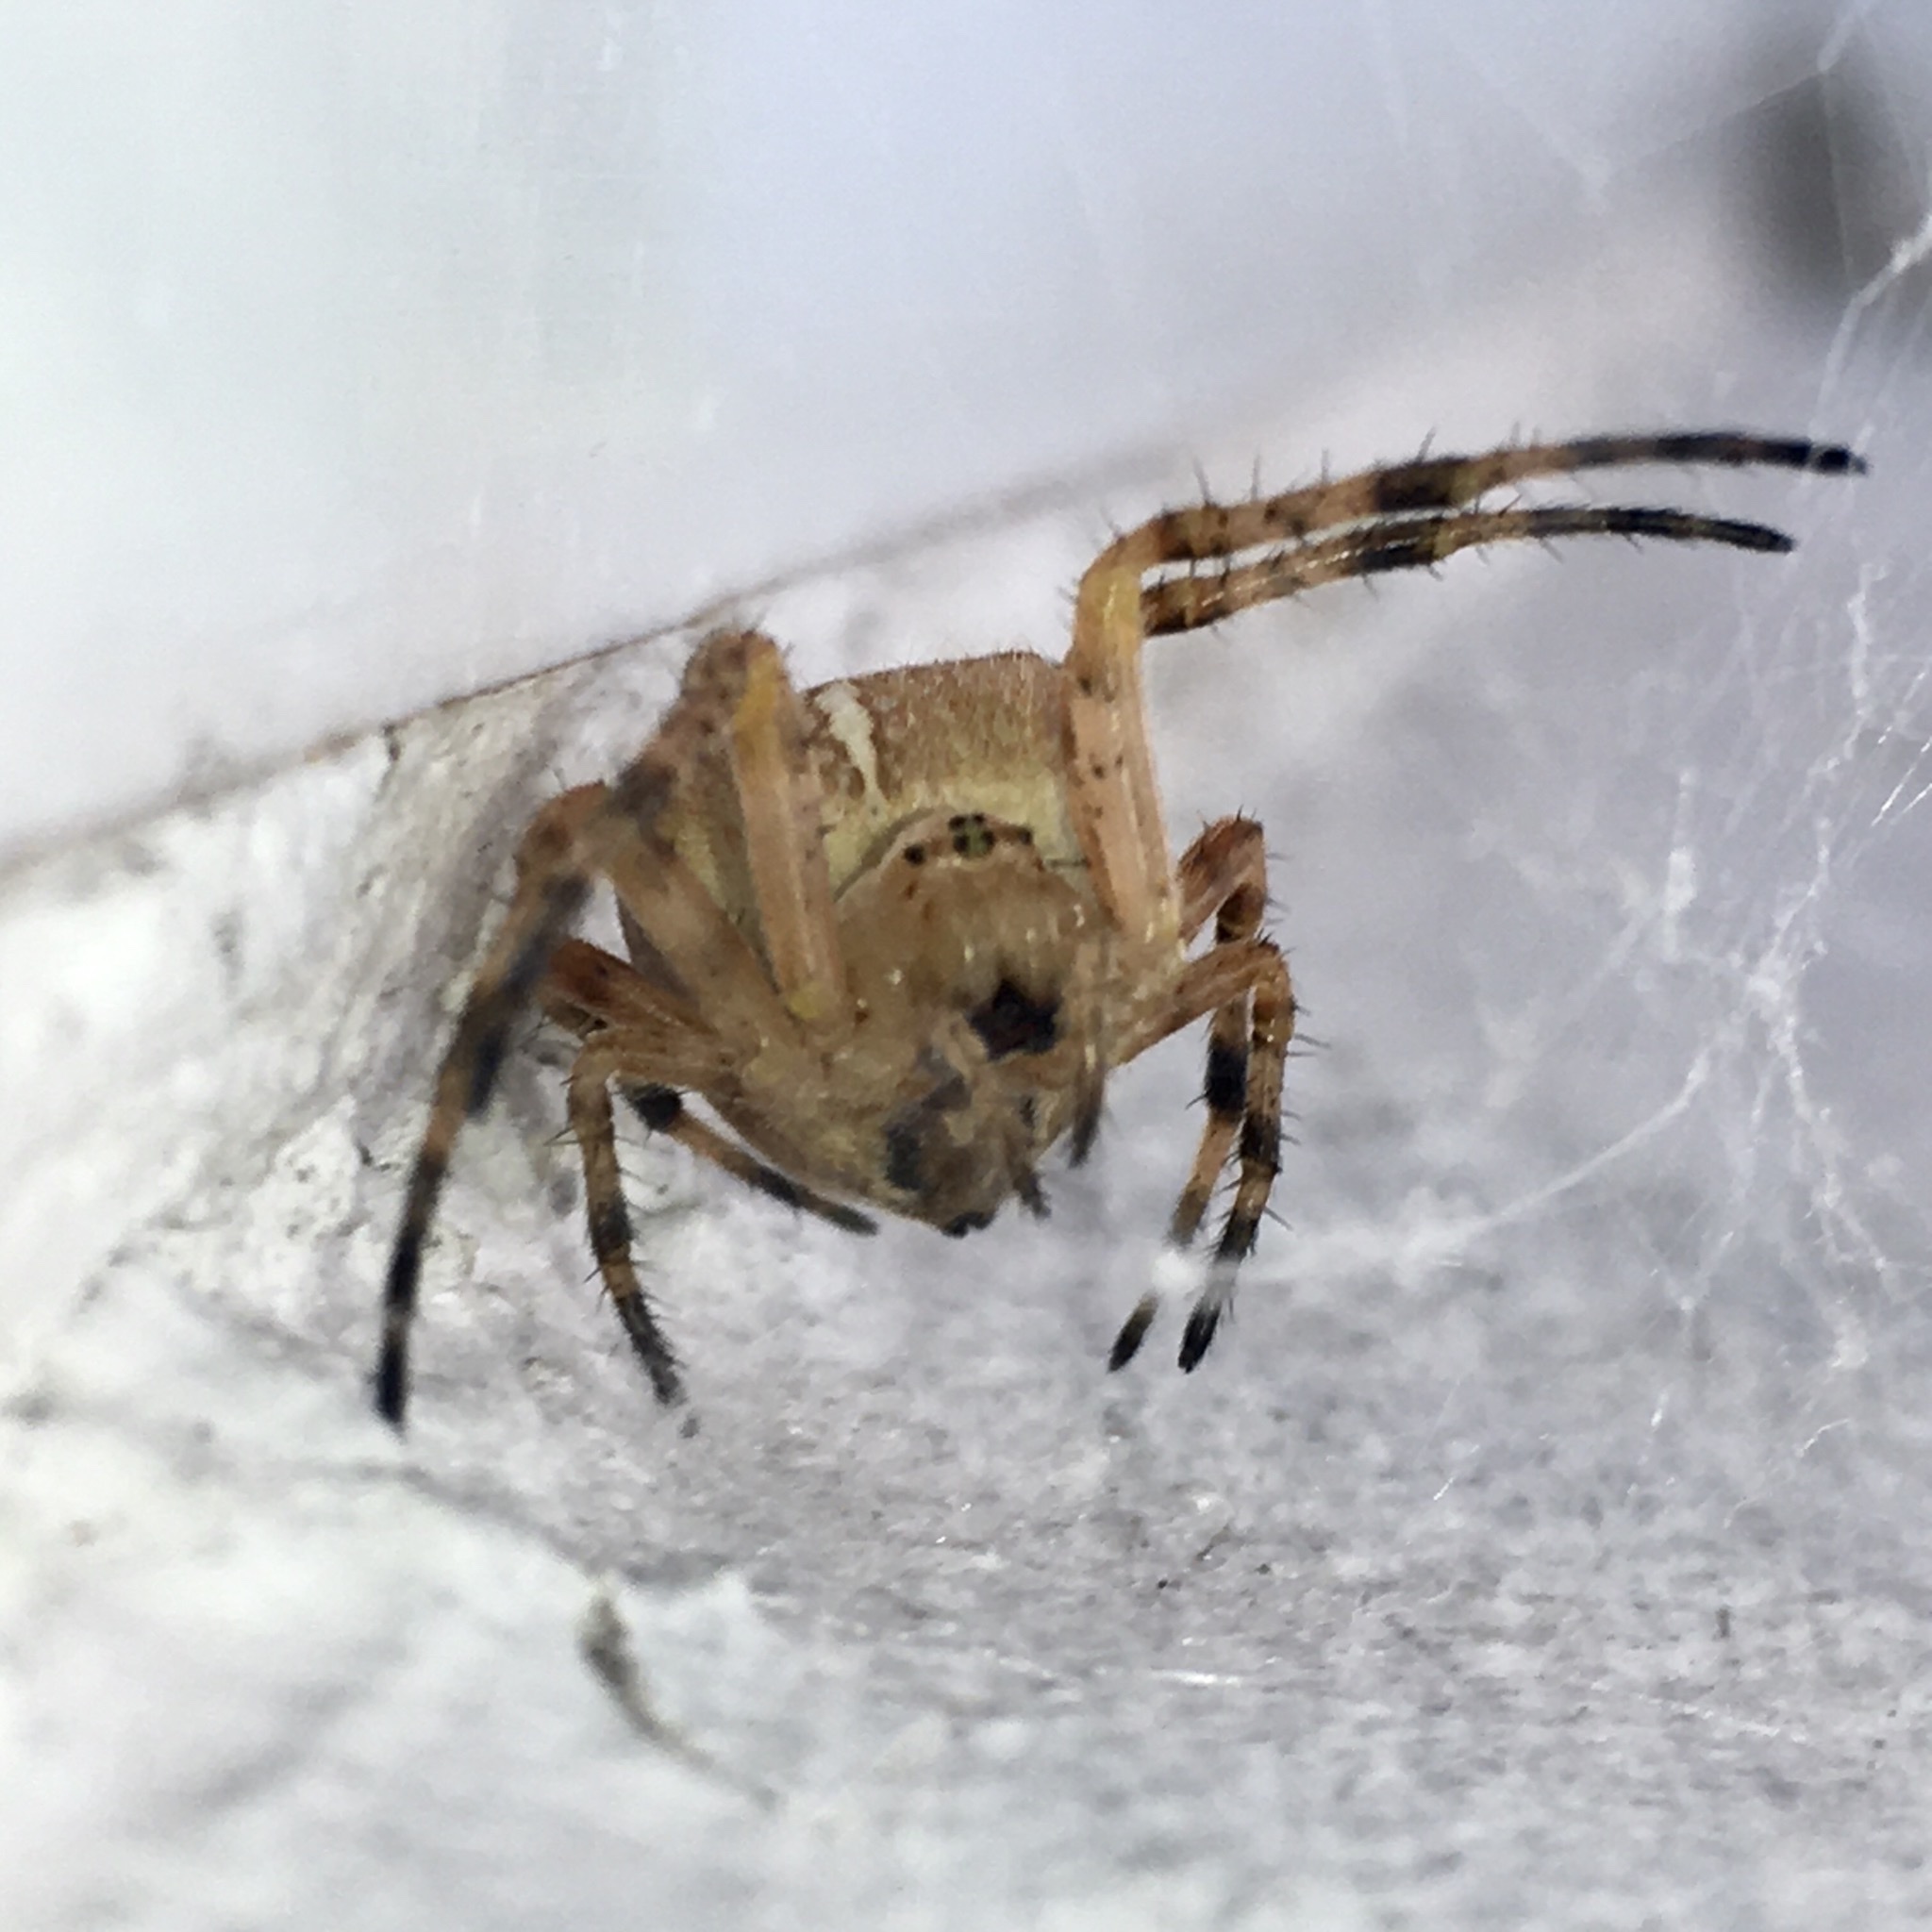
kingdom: Animalia
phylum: Arthropoda
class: Arachnida
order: Araneae
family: Araneidae
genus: Araneus
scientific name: Araneus diadematus
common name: Cross orbweaver
